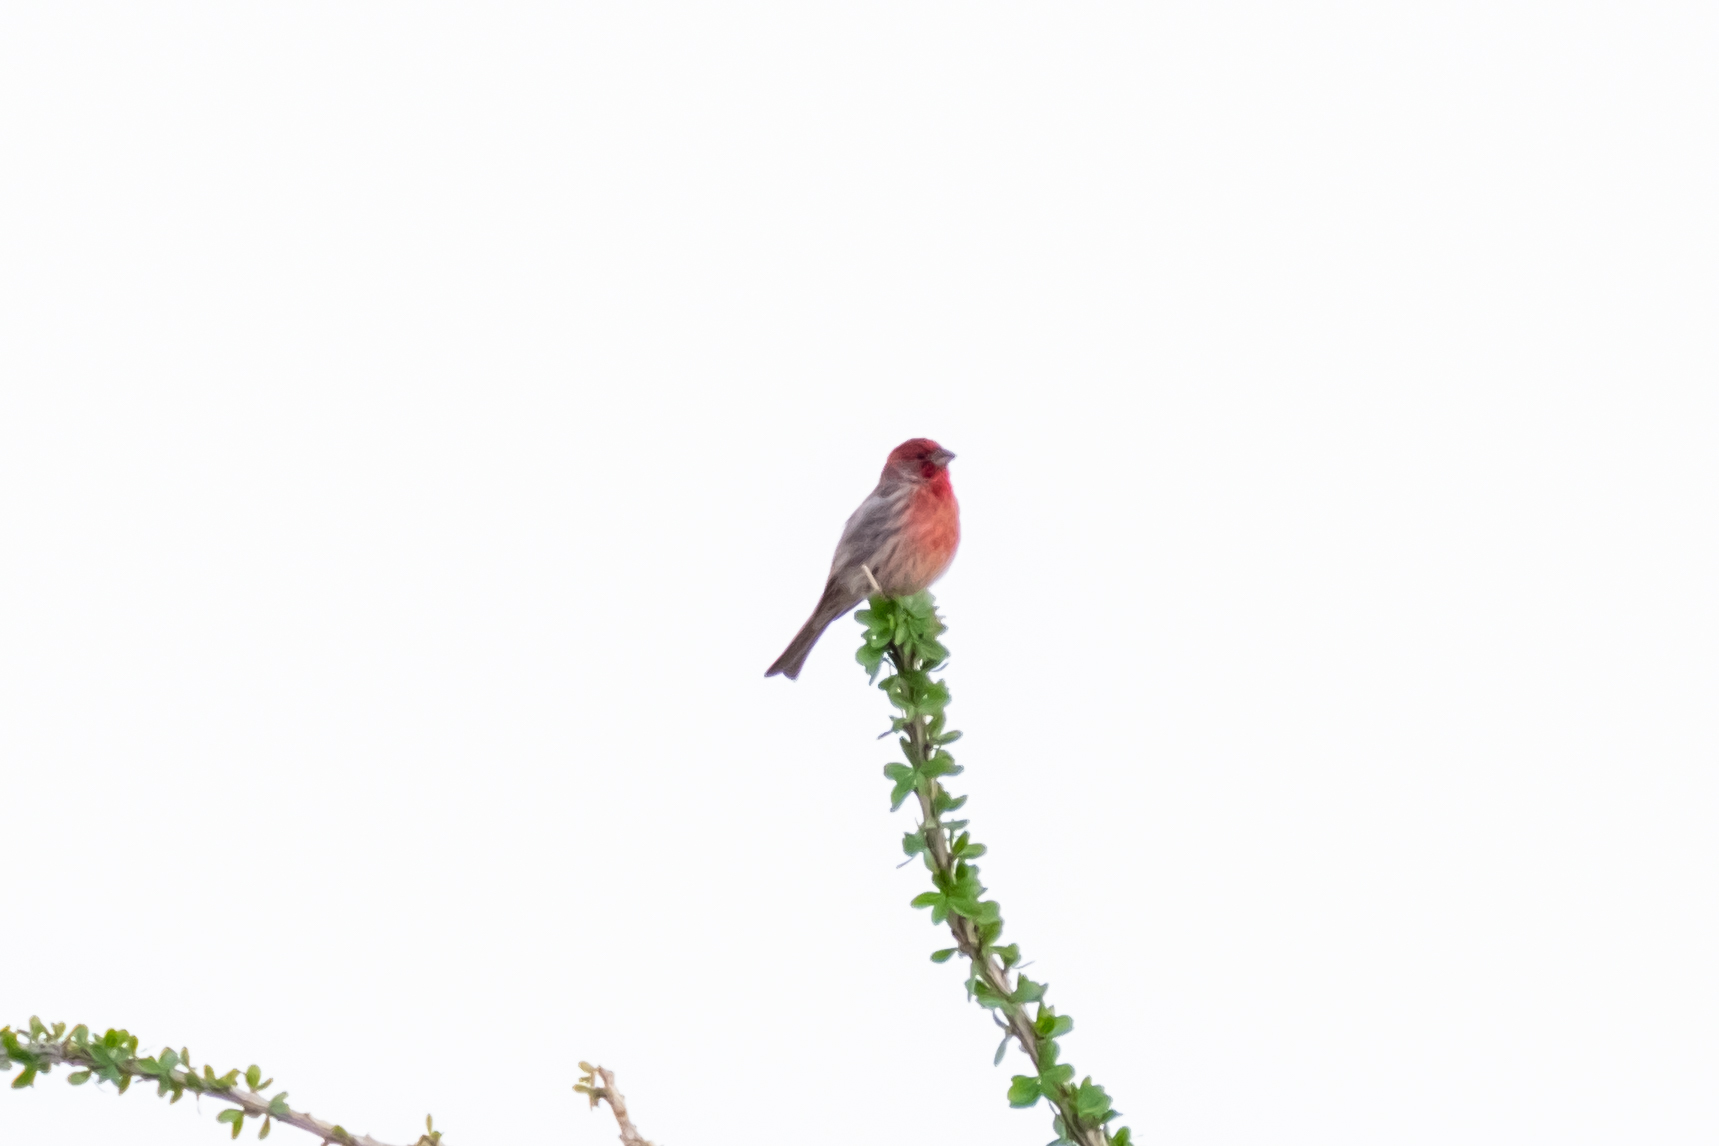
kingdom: Animalia
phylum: Chordata
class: Aves
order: Passeriformes
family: Fringillidae
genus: Haemorhous
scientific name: Haemorhous mexicanus
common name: House finch
